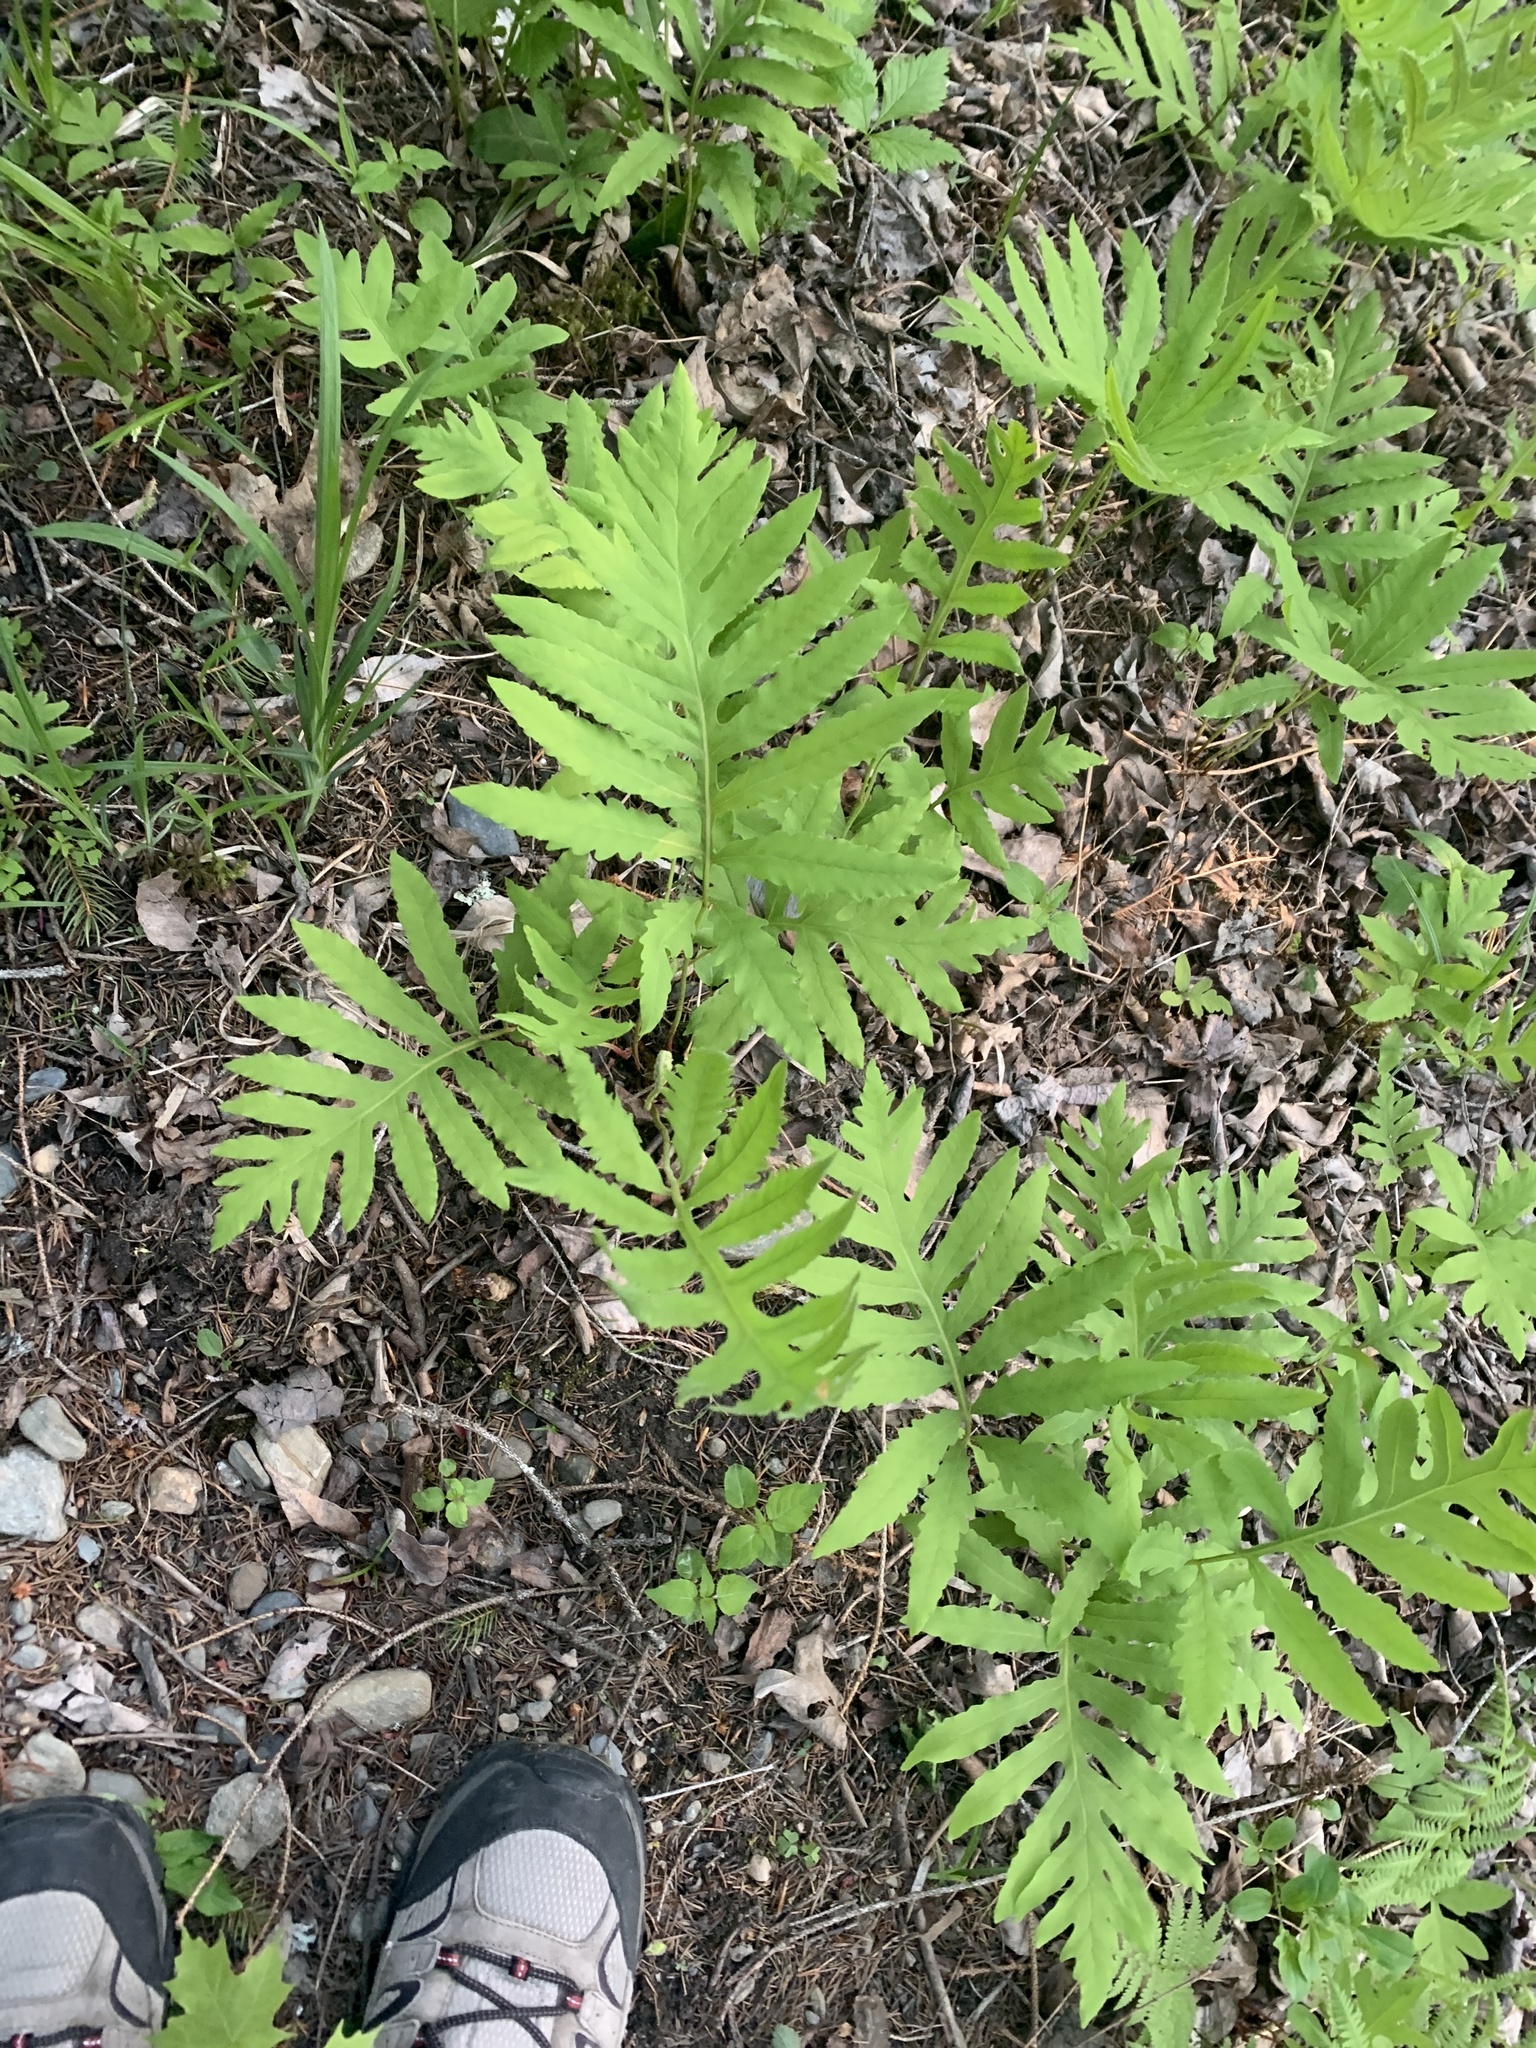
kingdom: Plantae
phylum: Tracheophyta
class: Polypodiopsida
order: Polypodiales
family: Onocleaceae
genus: Onoclea
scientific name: Onoclea sensibilis
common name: Sensitive fern
